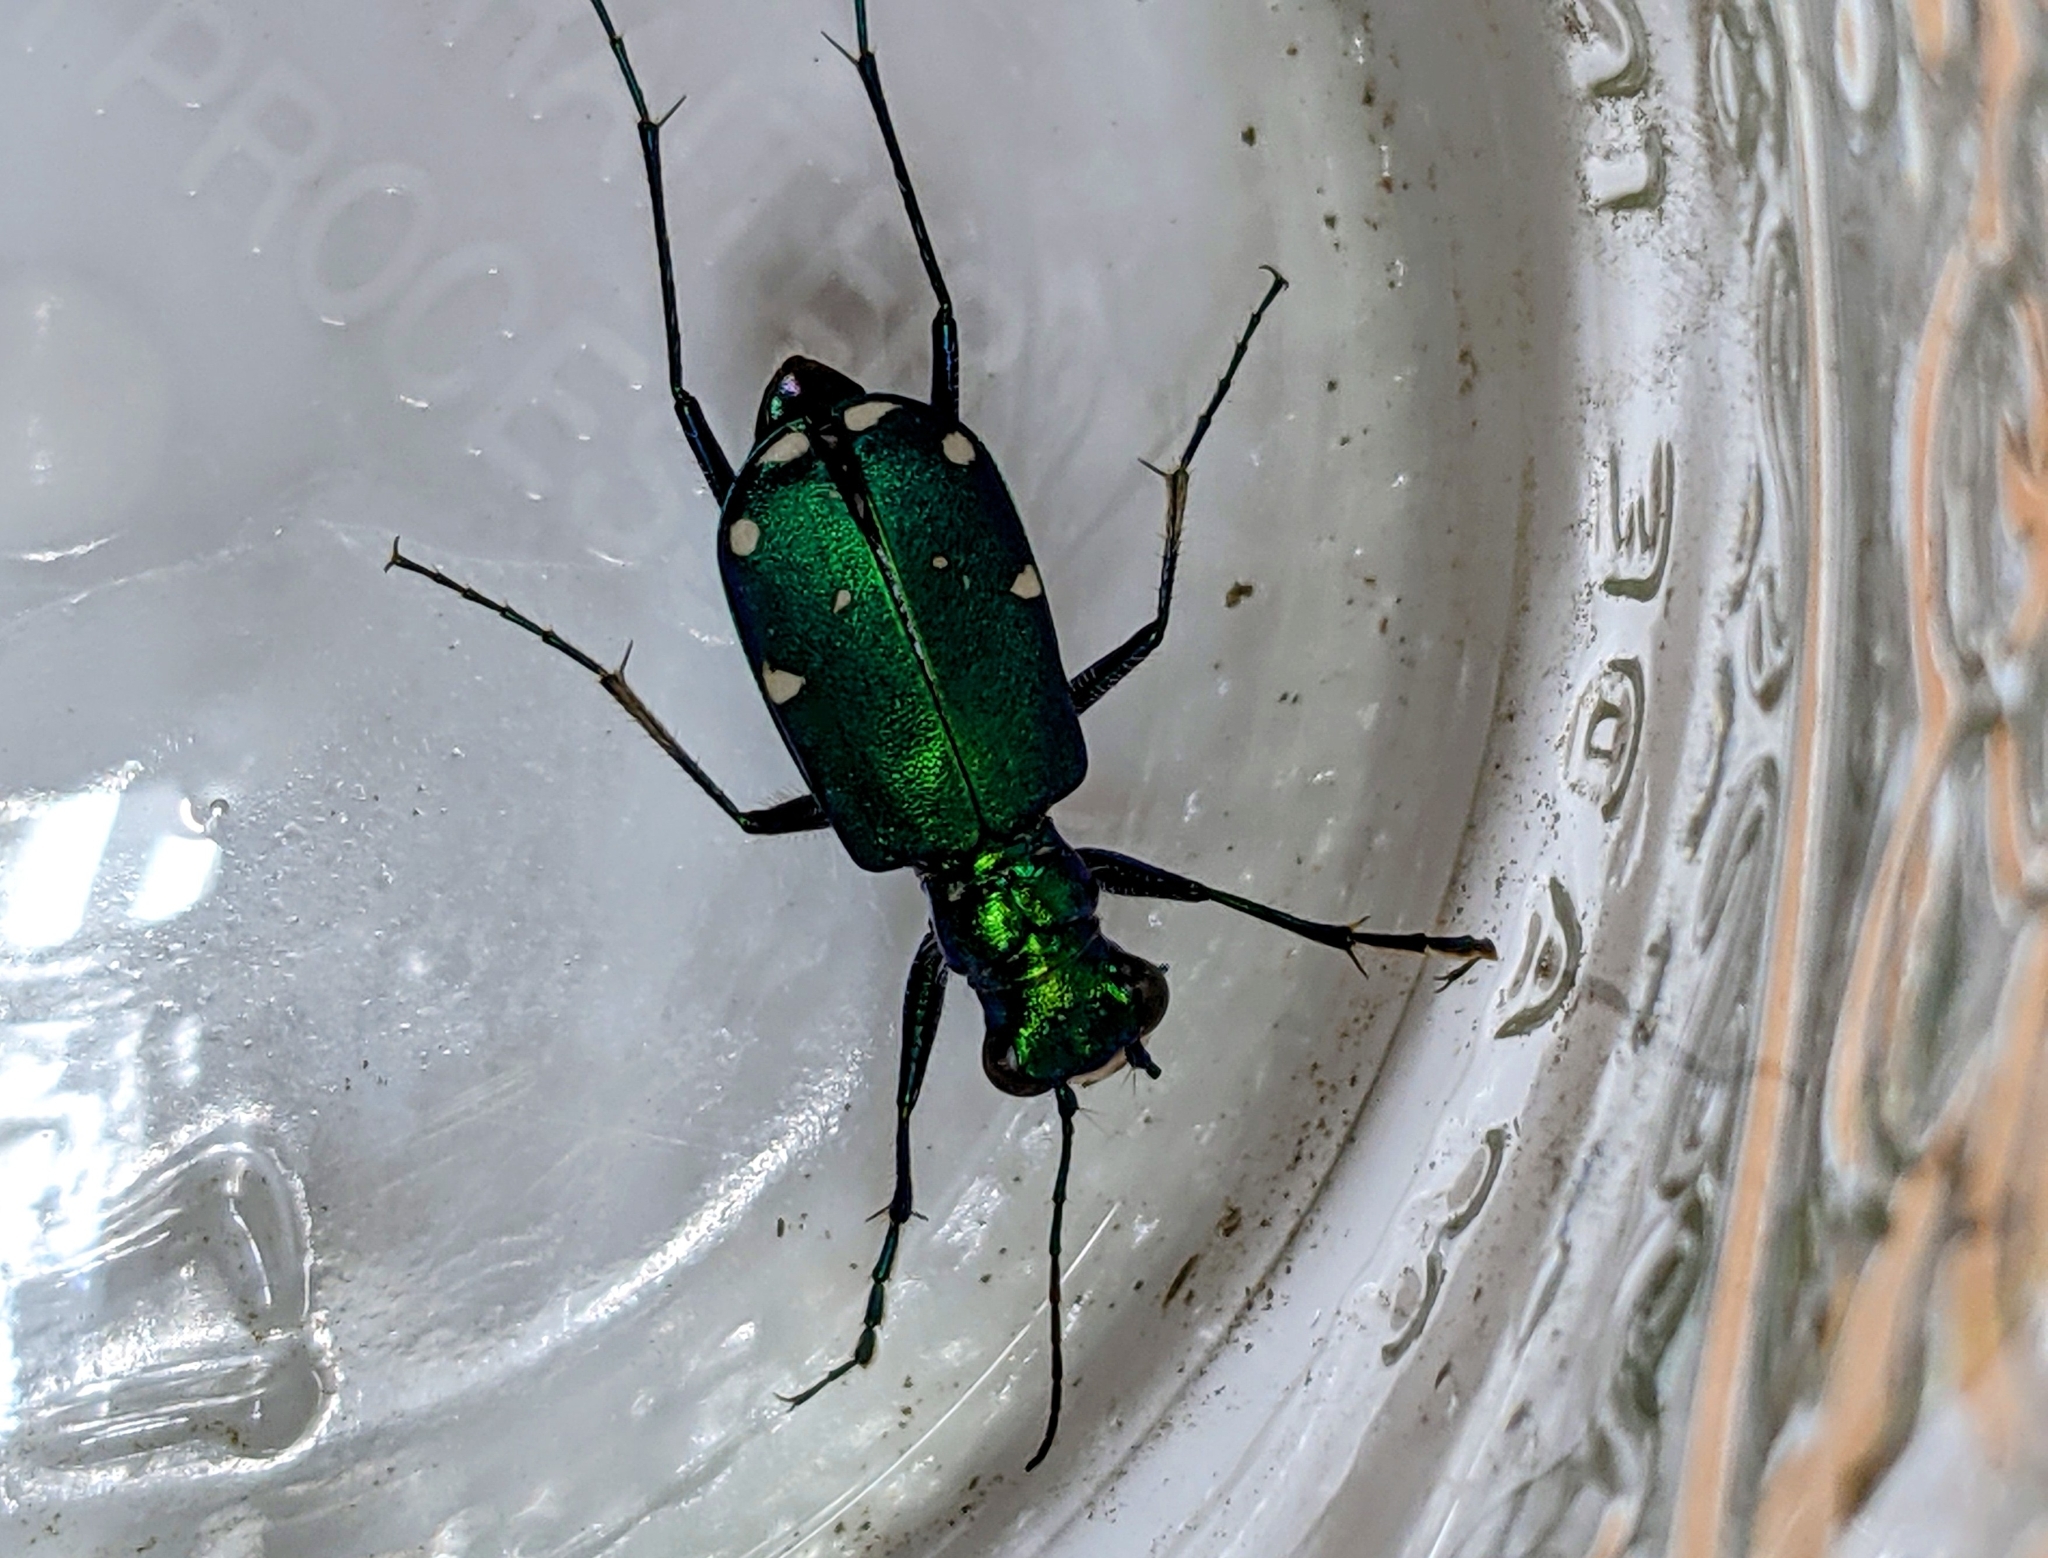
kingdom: Animalia
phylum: Arthropoda
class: Insecta
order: Coleoptera
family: Carabidae
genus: Cicindela
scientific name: Cicindela sexguttata
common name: Six-spotted tiger beetle
